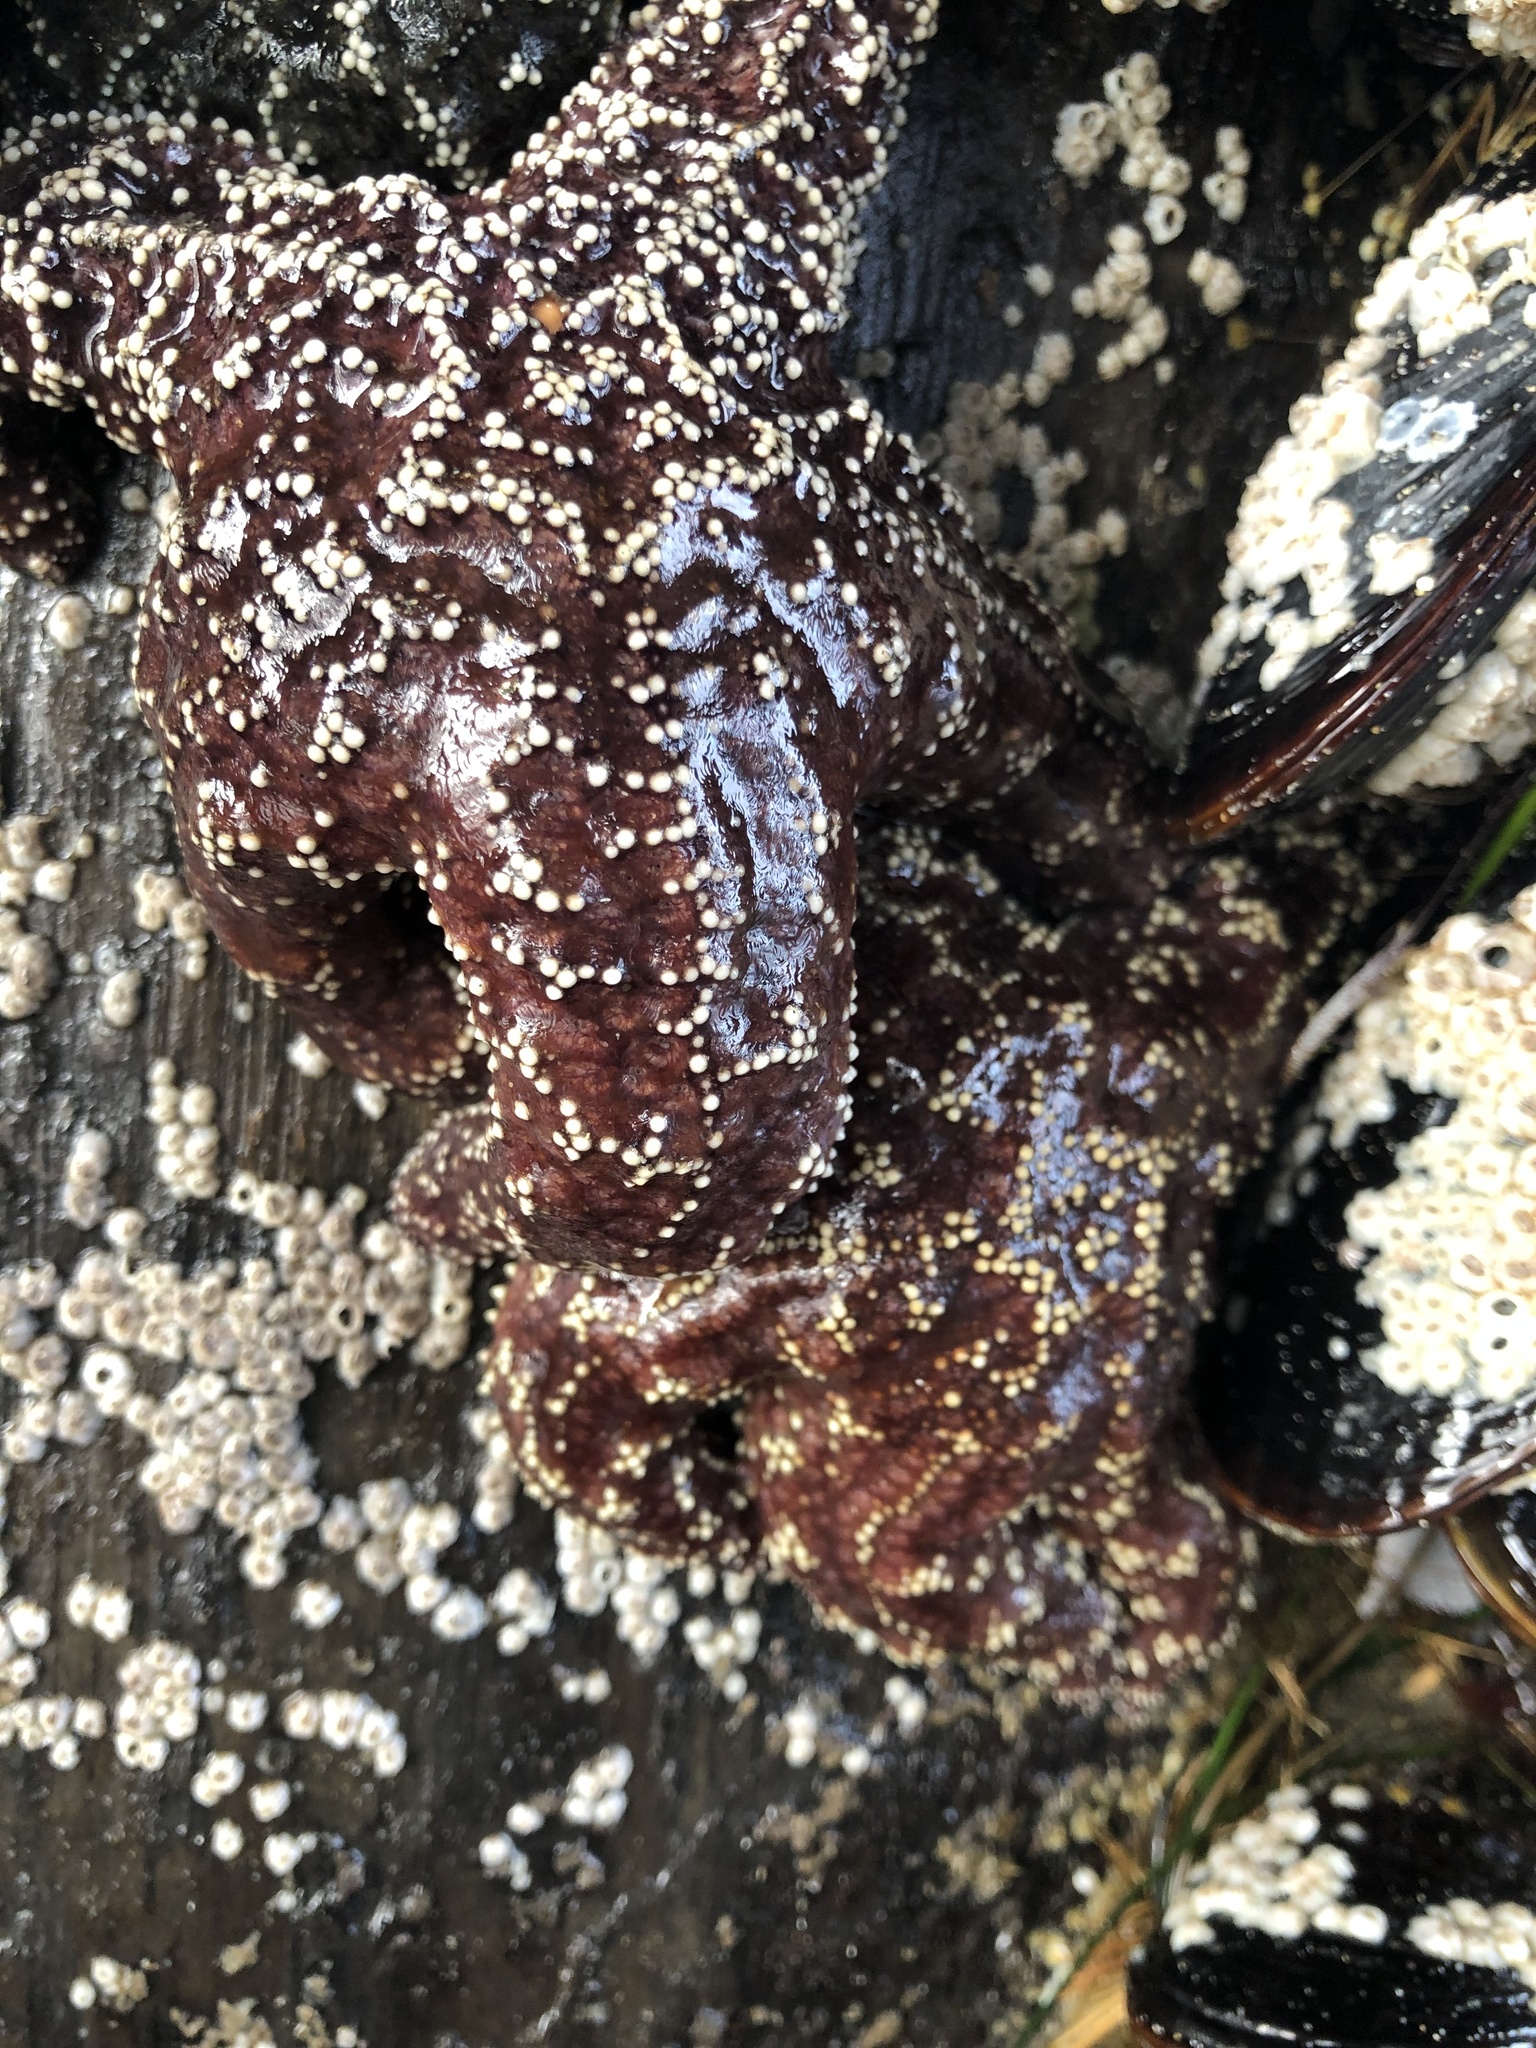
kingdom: Animalia
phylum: Echinodermata
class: Asteroidea
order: Forcipulatida
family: Asteriidae
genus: Pisaster
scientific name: Pisaster ochraceus
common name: Ochre stars
